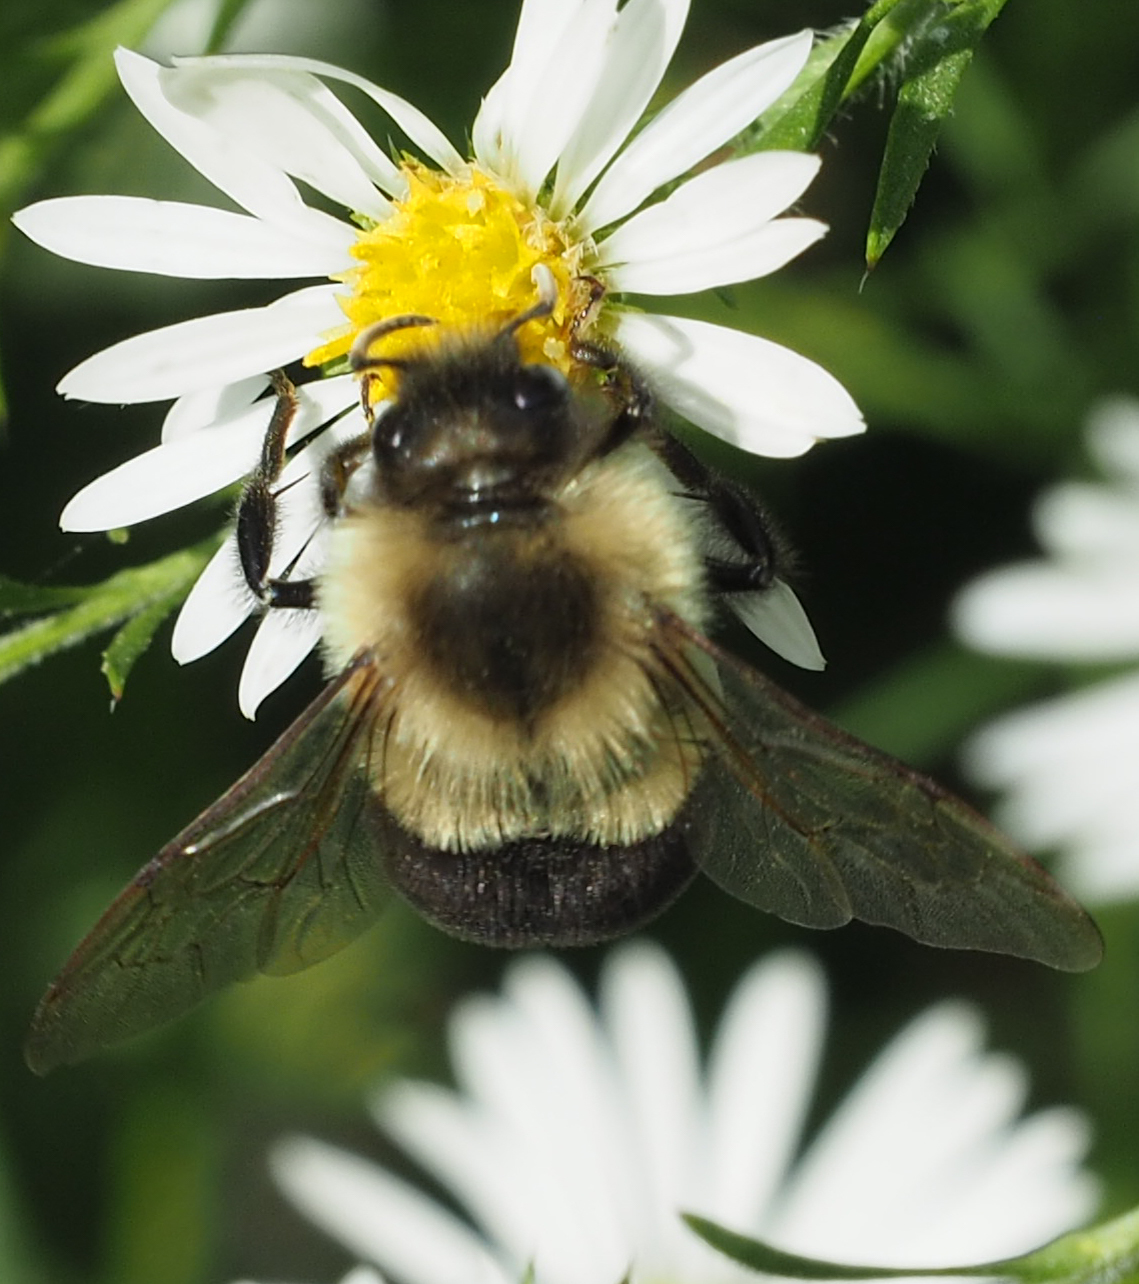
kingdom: Animalia
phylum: Arthropoda
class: Insecta
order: Hymenoptera
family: Apidae
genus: Bombus
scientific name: Bombus impatiens
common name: Common eastern bumble bee
